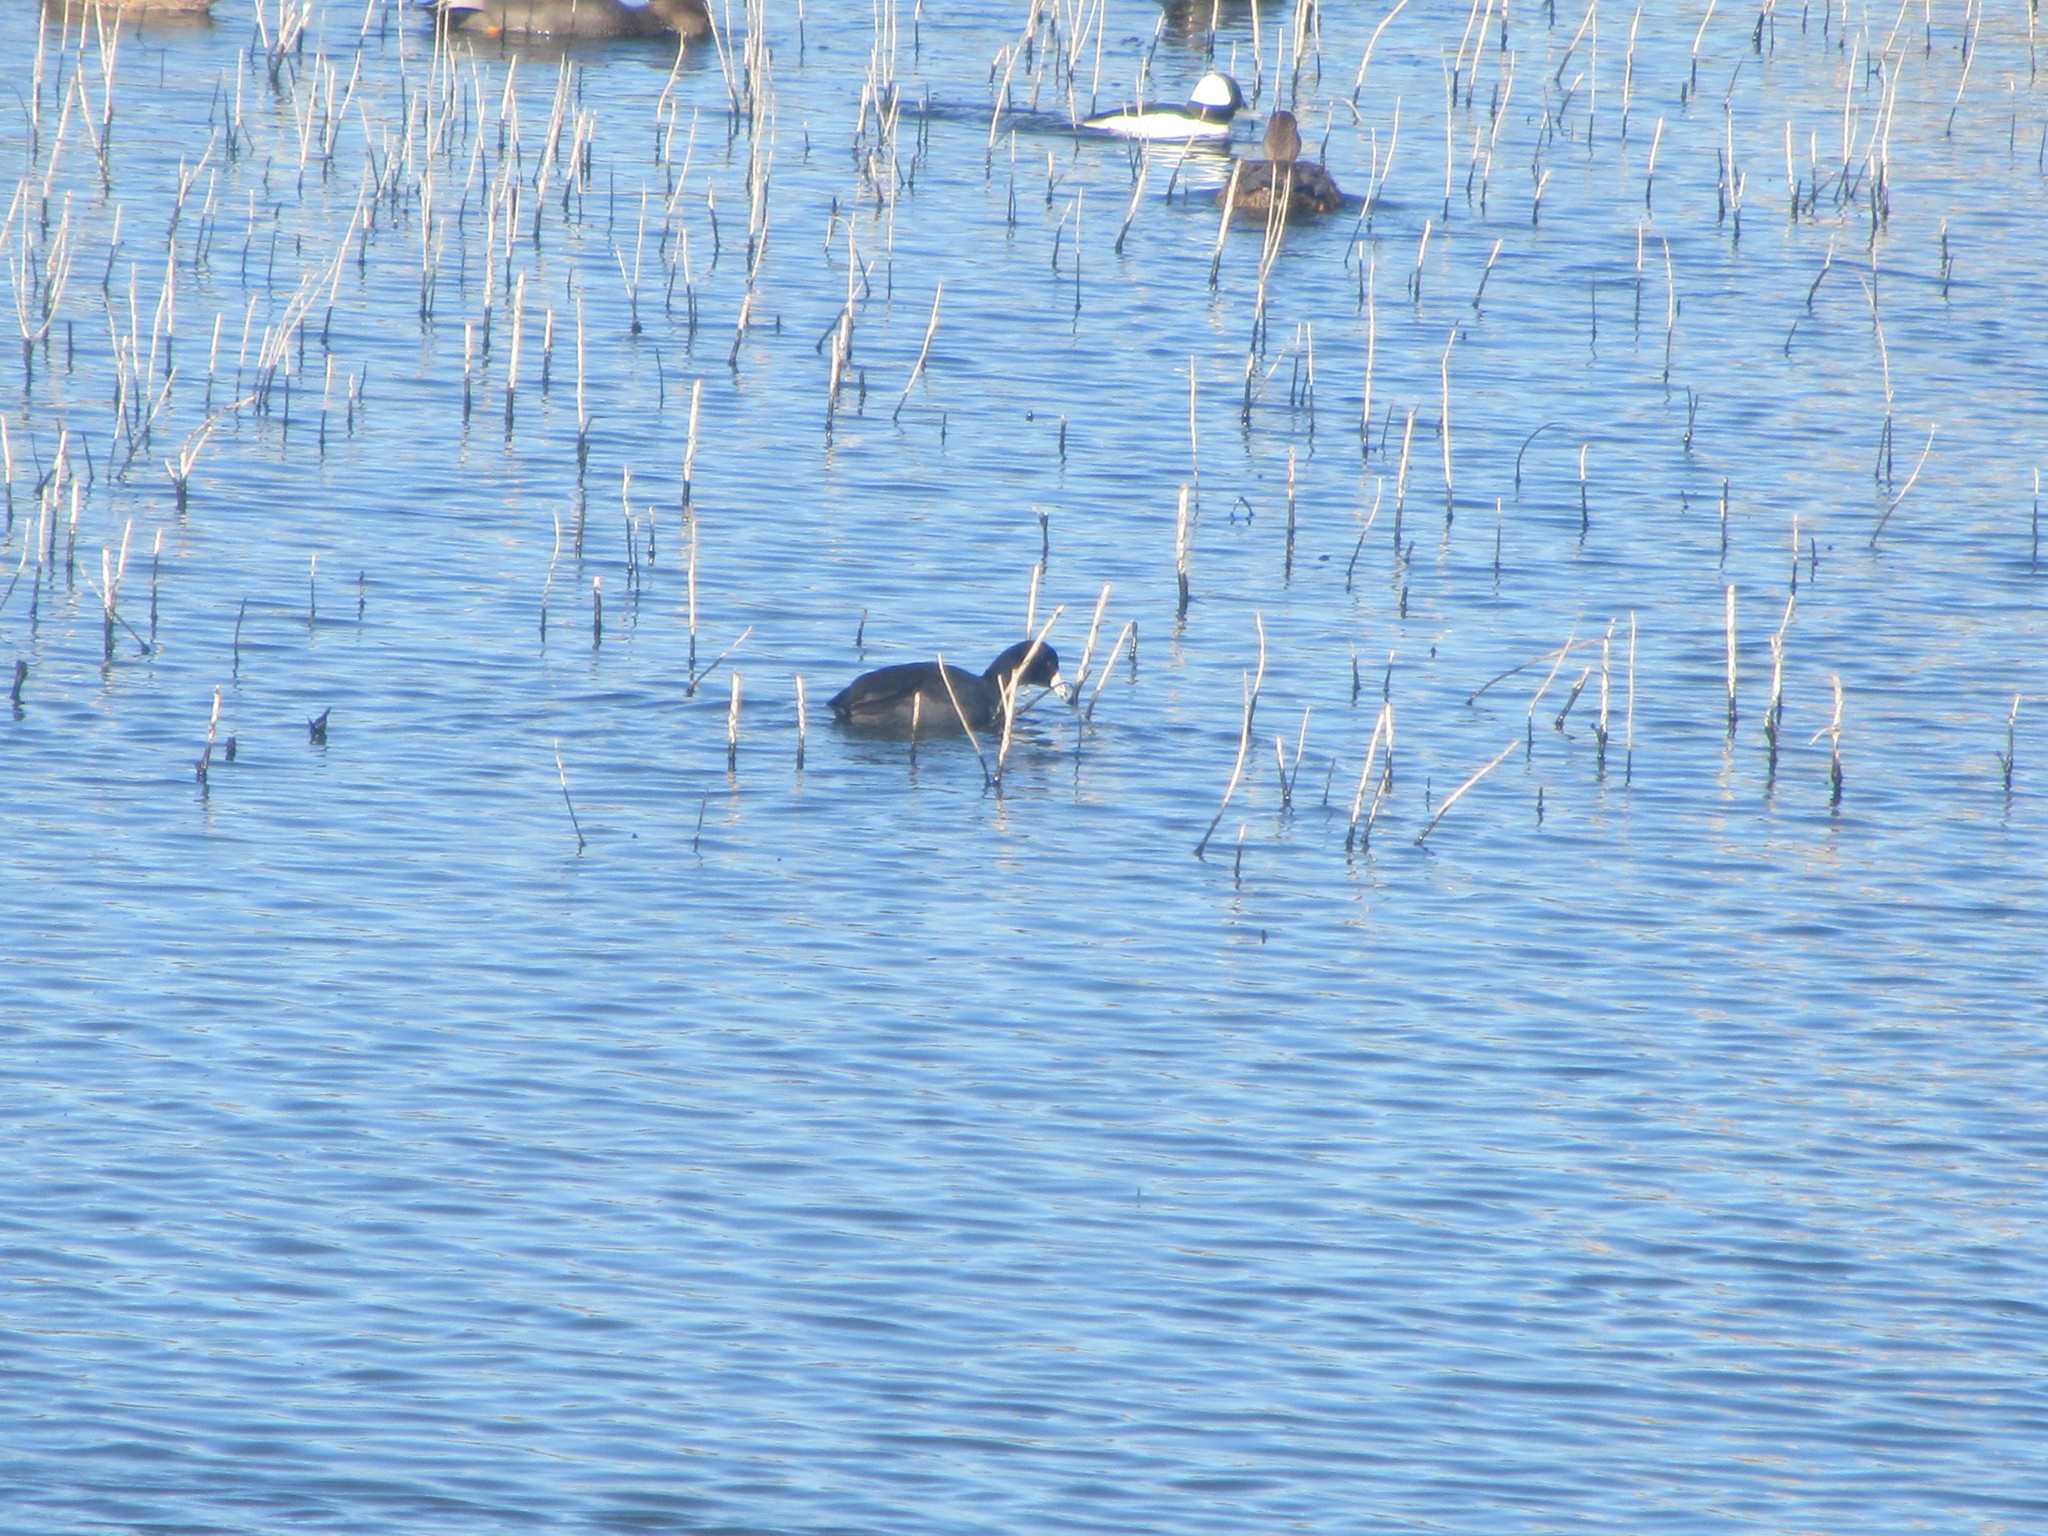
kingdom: Animalia
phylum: Chordata
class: Aves
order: Gruiformes
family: Rallidae
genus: Fulica
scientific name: Fulica americana
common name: American coot
